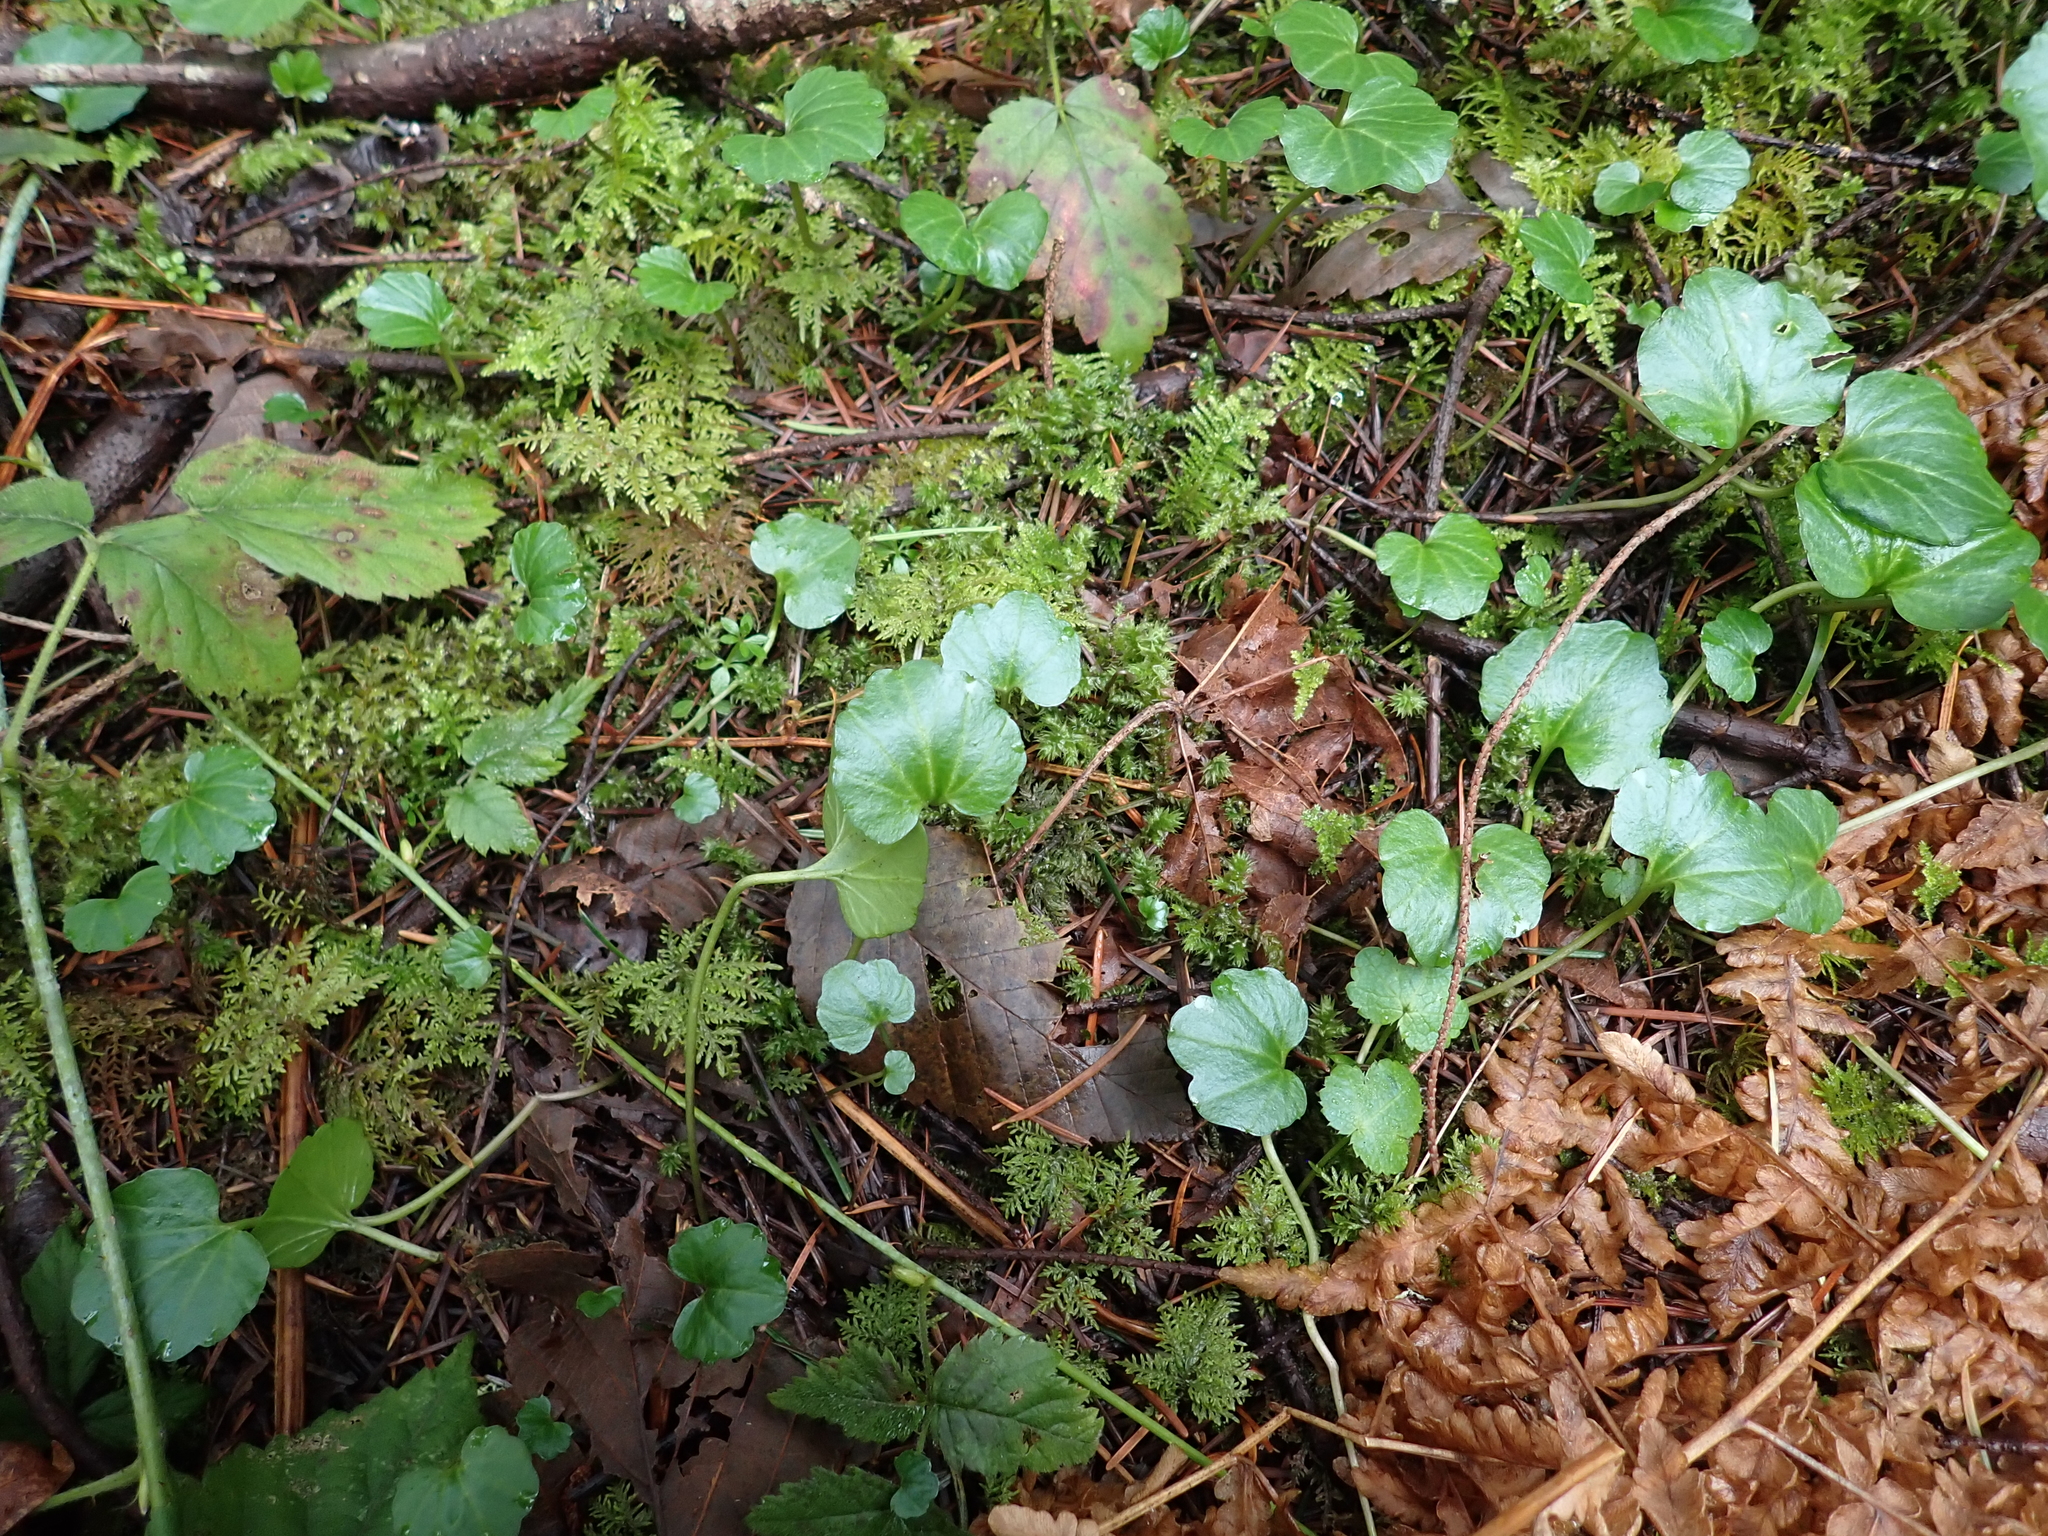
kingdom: Plantae
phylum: Tracheophyta
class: Magnoliopsida
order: Brassicales
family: Brassicaceae
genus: Cardamine
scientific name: Cardamine nuttallii
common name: Nuttall's toothwort
